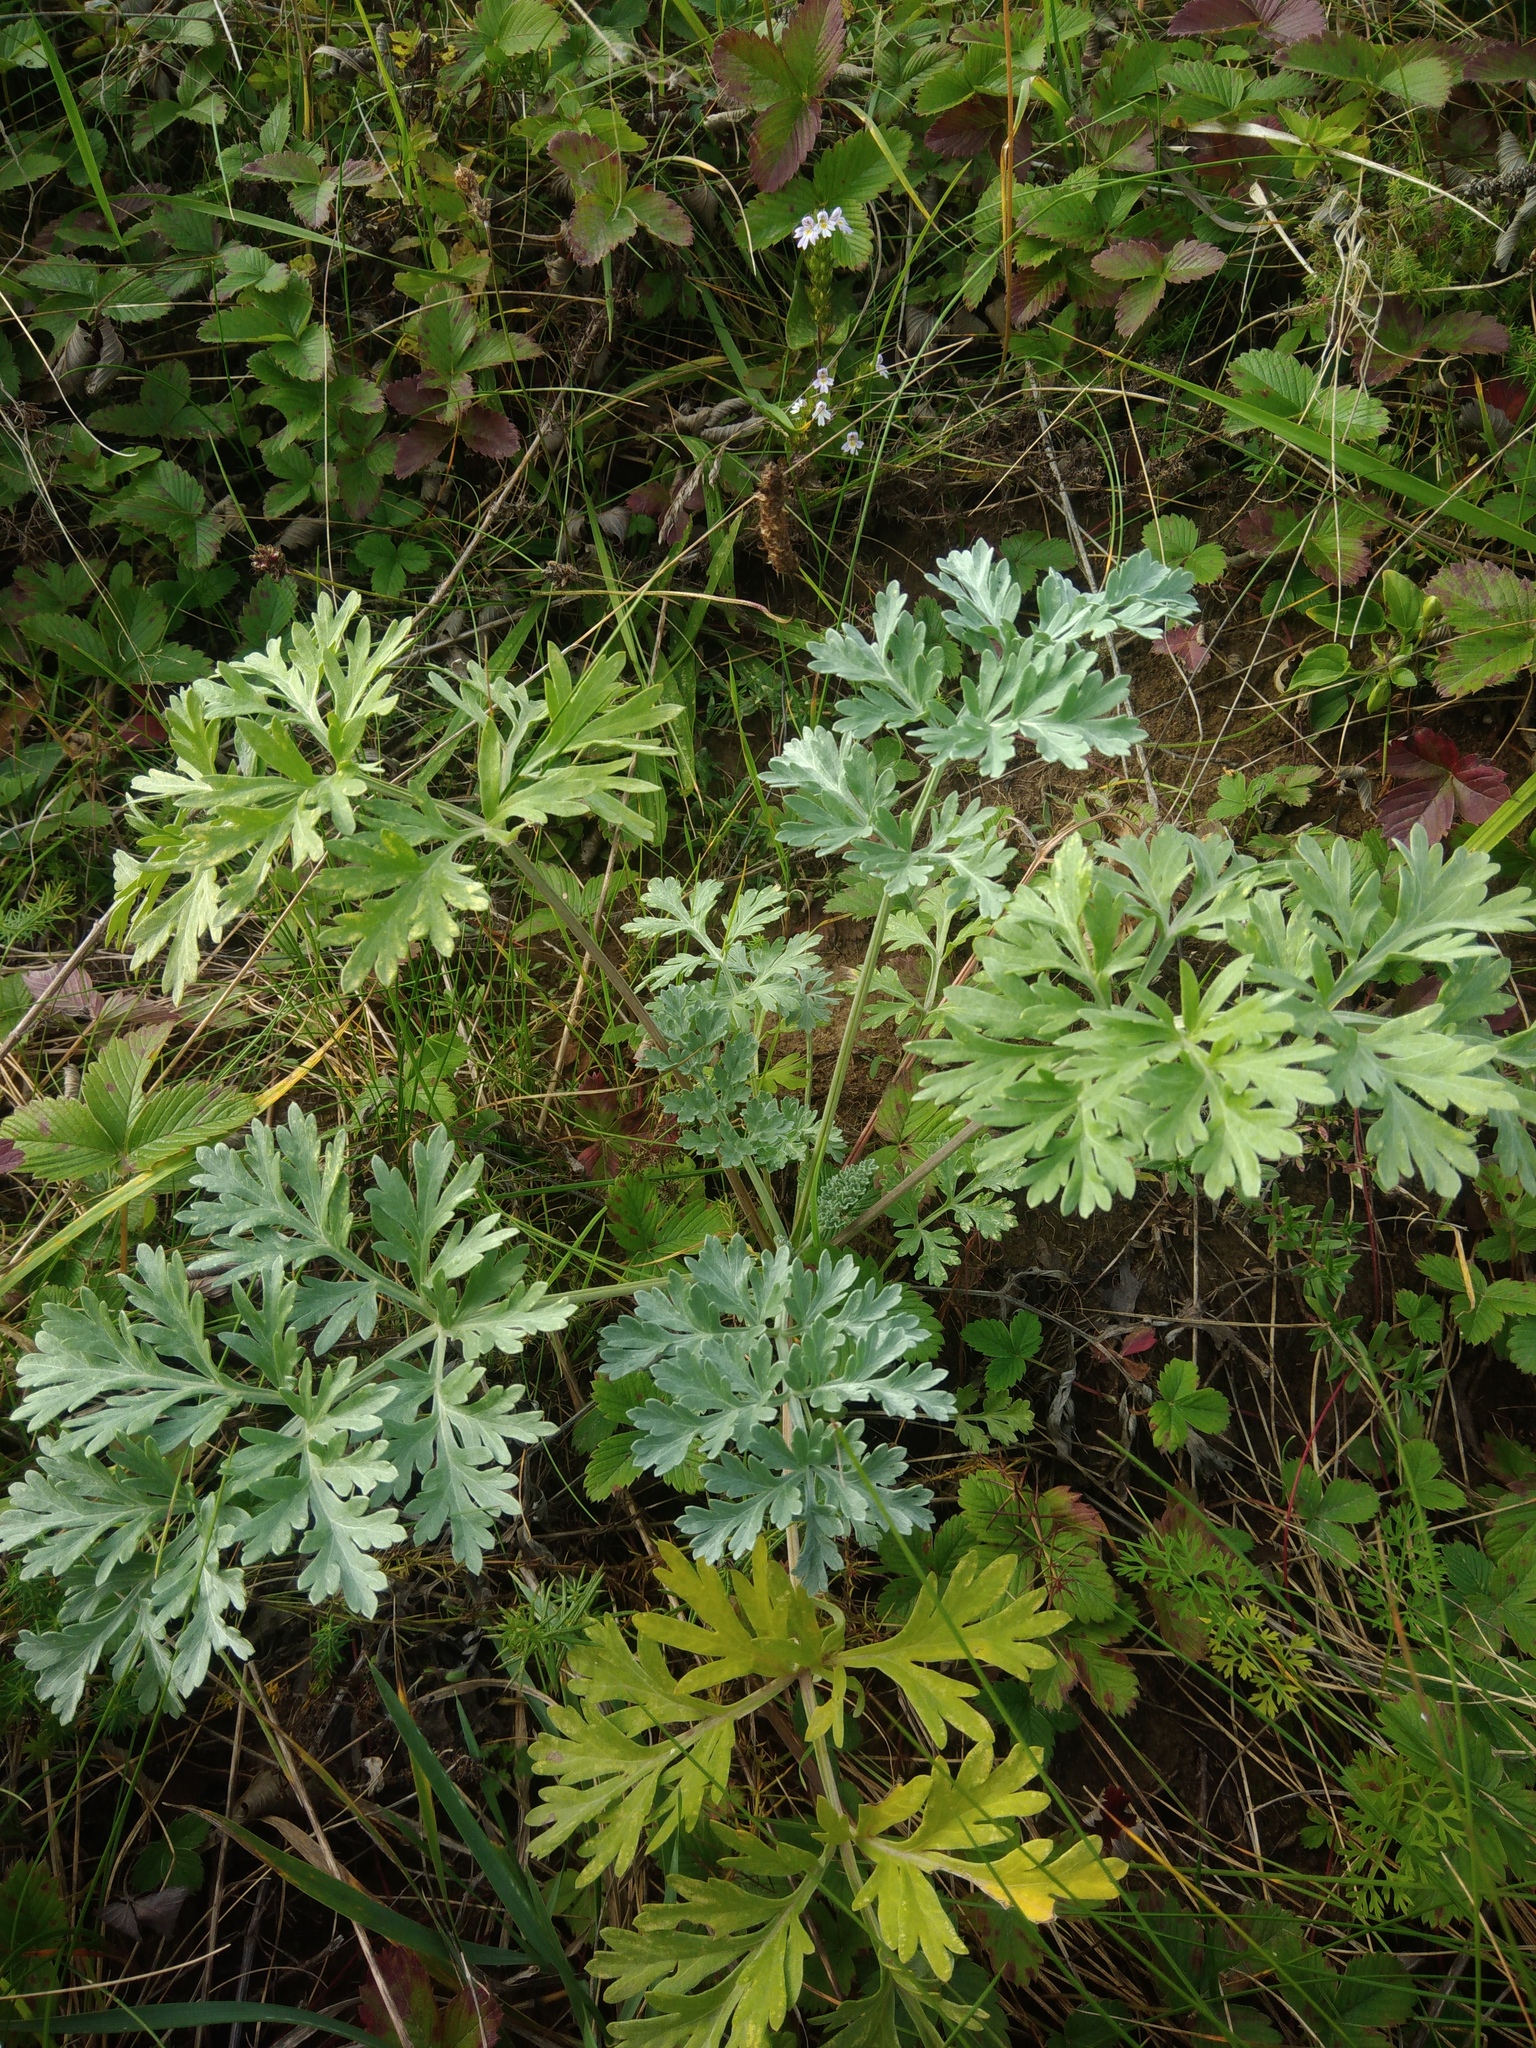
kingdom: Plantae
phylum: Tracheophyta
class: Magnoliopsida
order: Asterales
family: Asteraceae
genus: Artemisia
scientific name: Artemisia absinthium
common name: Wormwood
